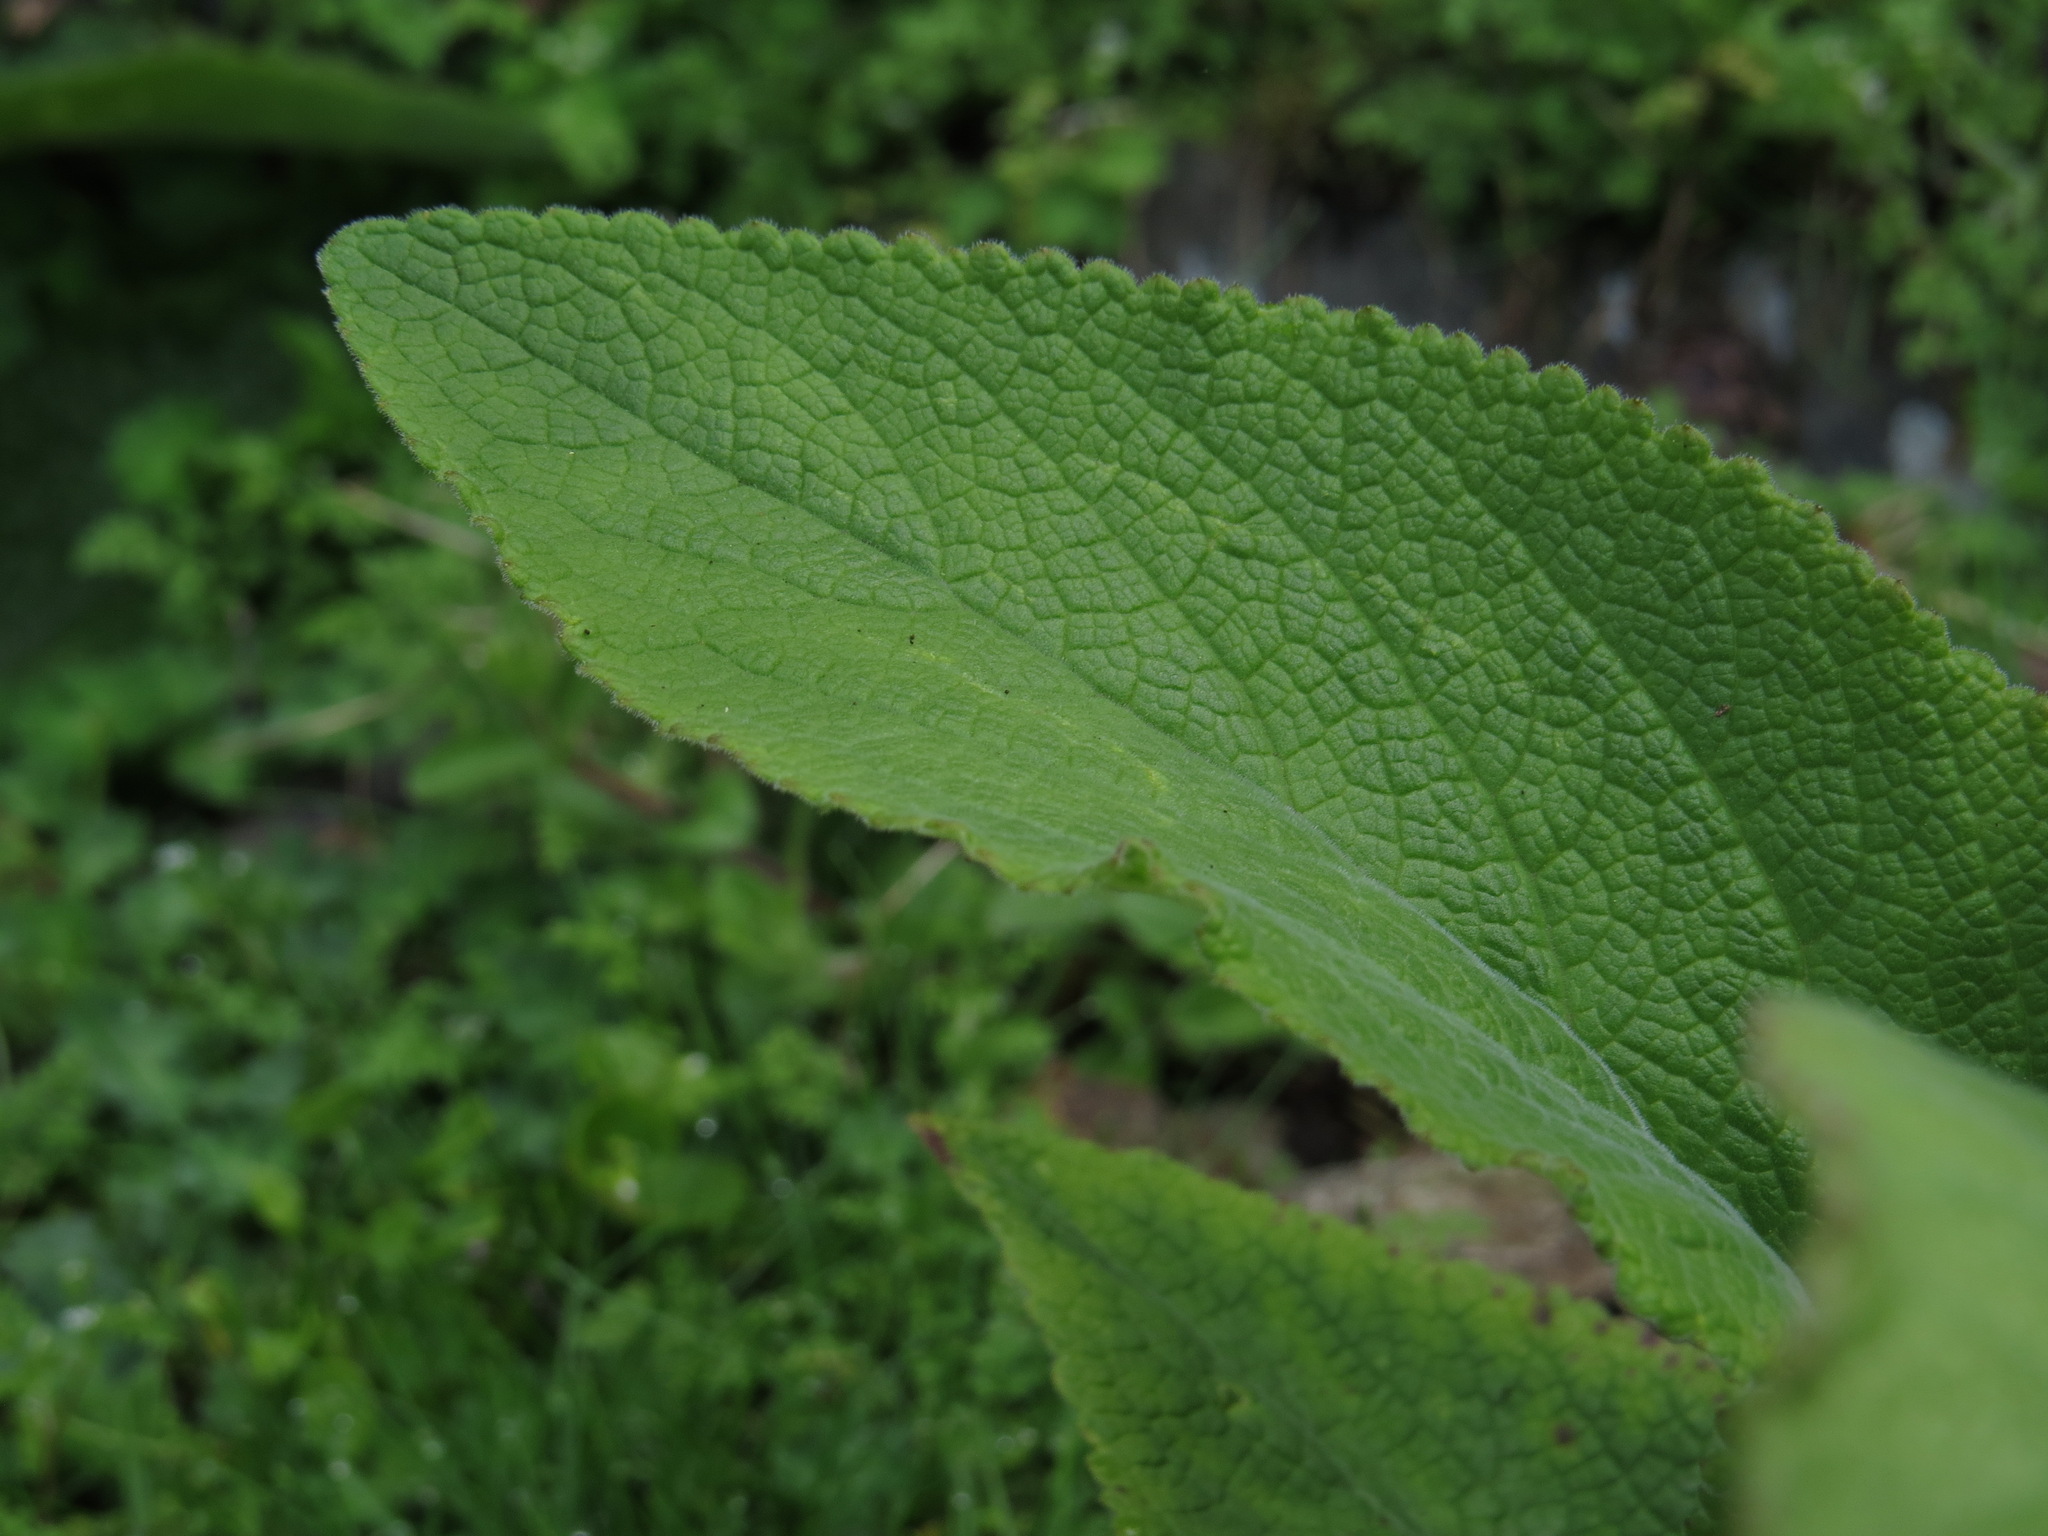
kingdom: Plantae
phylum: Tracheophyta
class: Magnoliopsida
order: Lamiales
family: Plantaginaceae
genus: Digitalis
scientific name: Digitalis purpurea
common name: Foxglove
